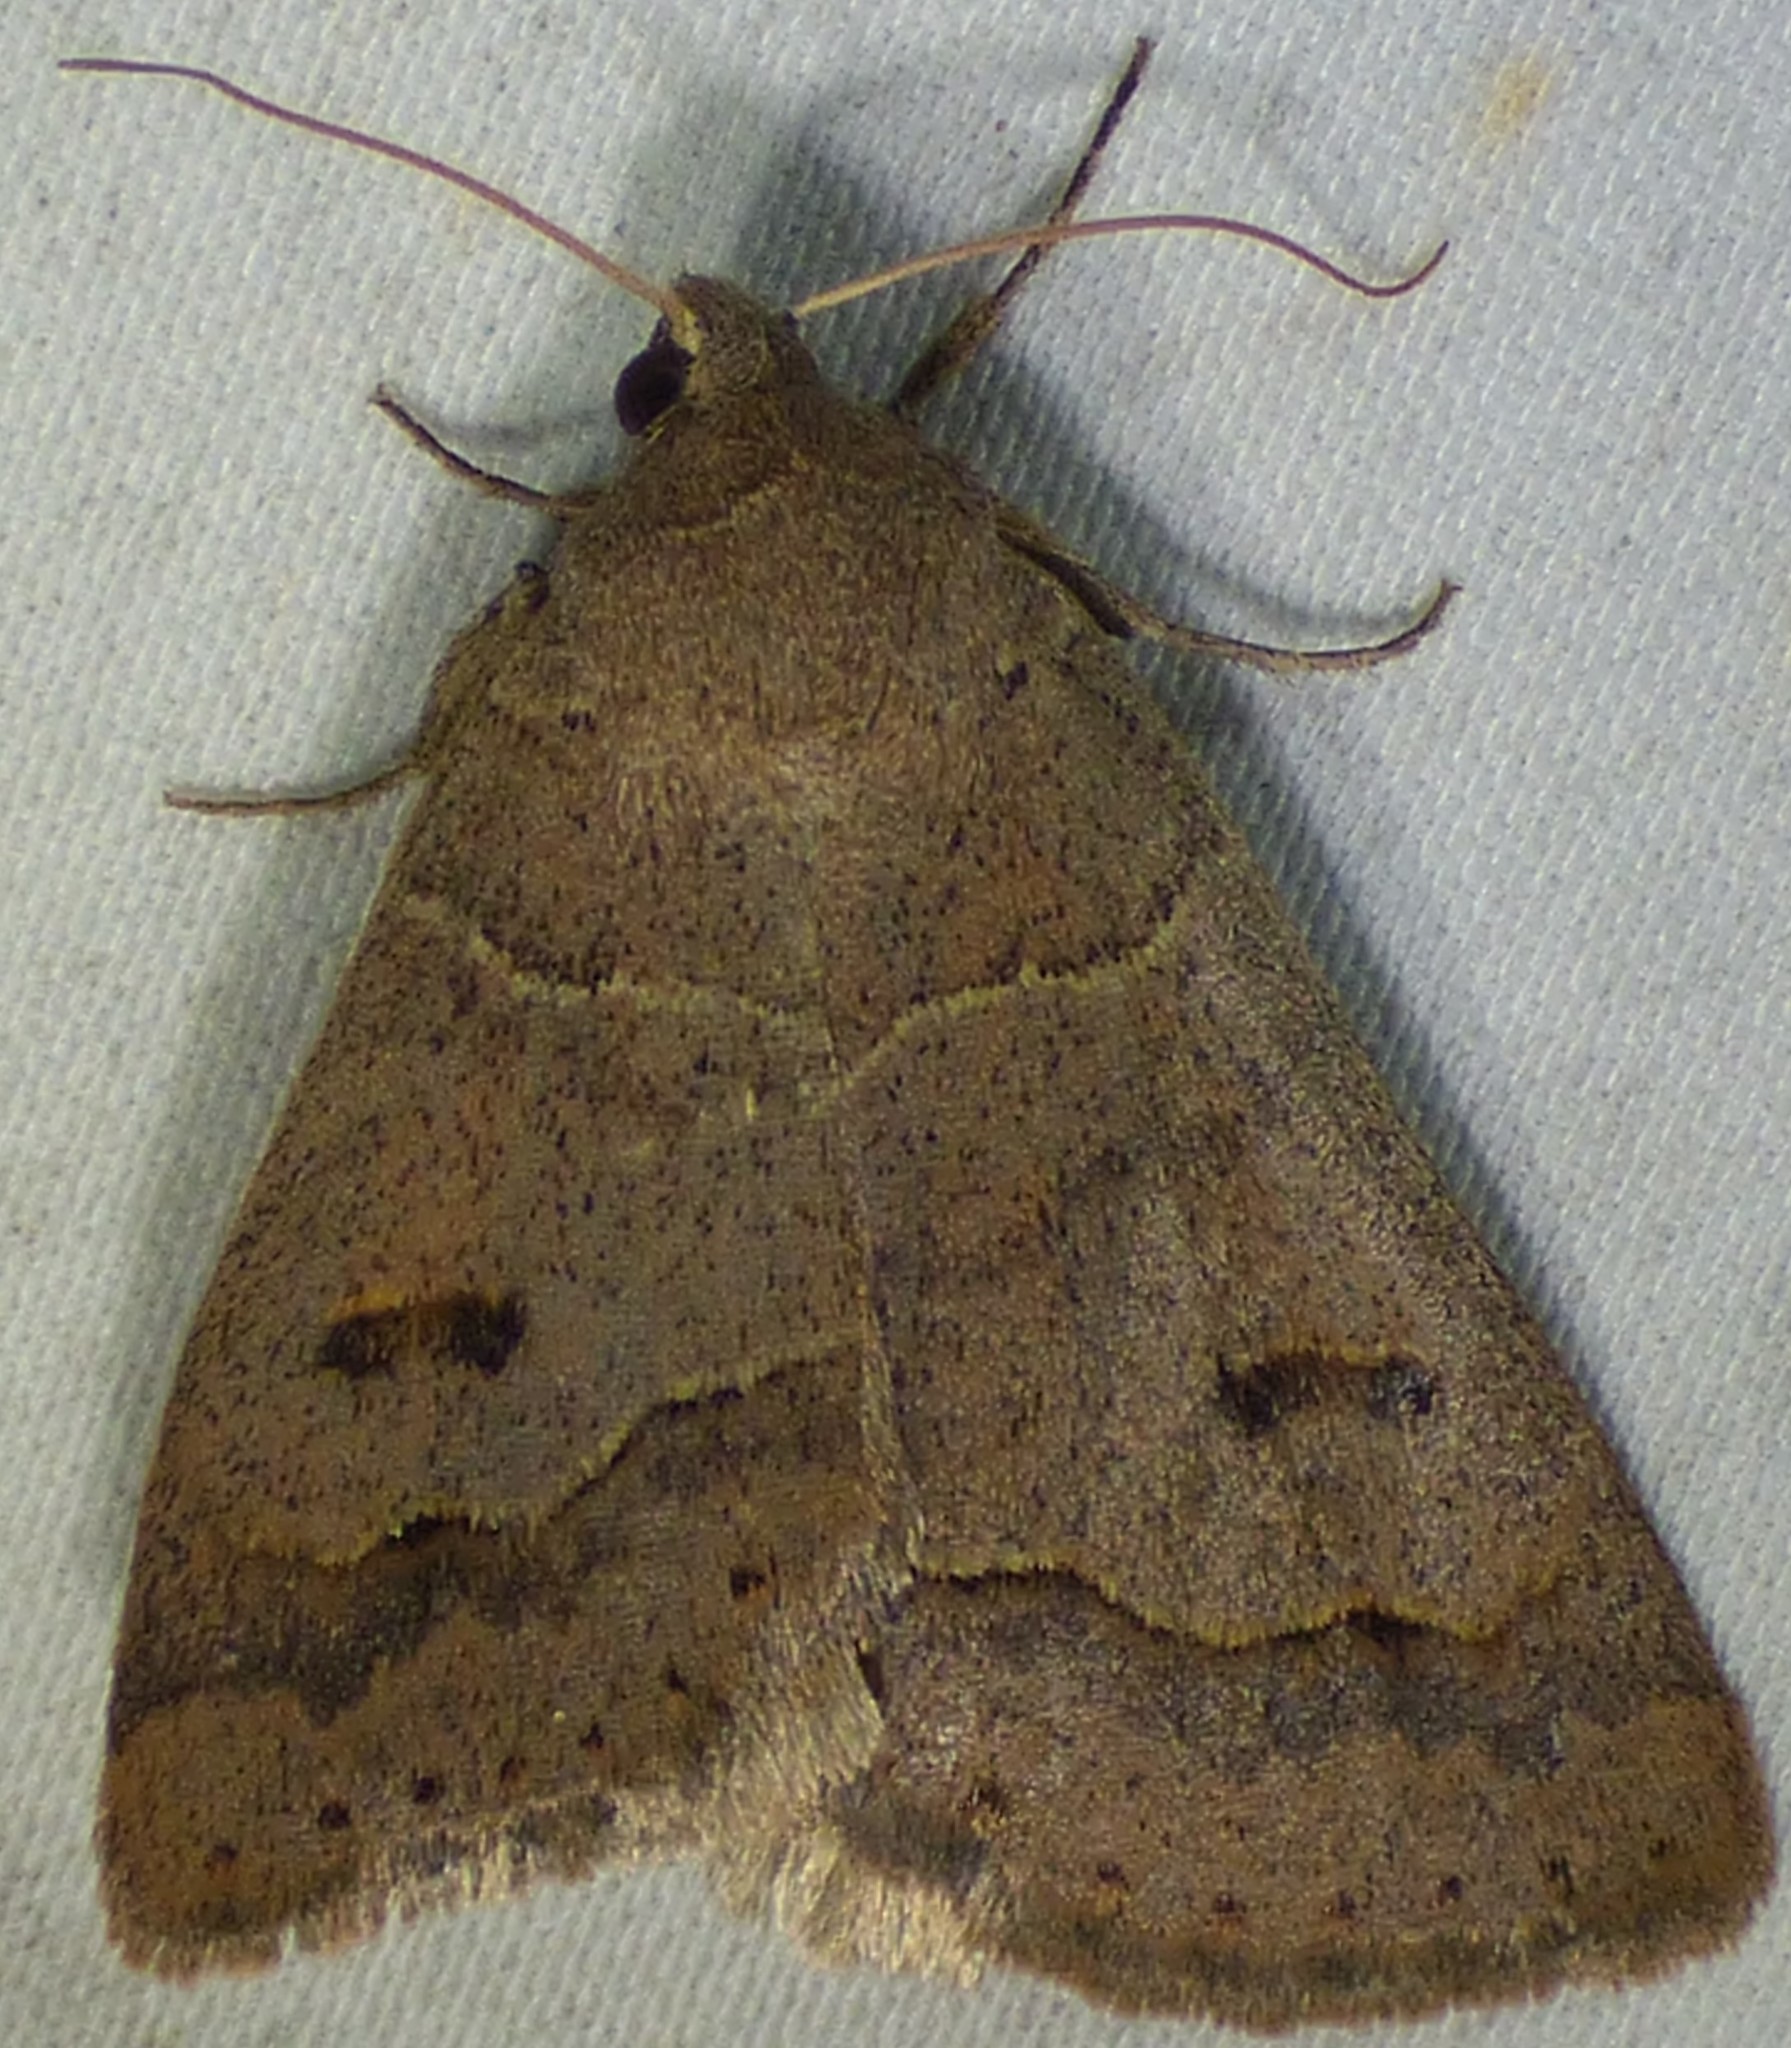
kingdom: Animalia
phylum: Arthropoda
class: Insecta
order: Lepidoptera
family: Erebidae
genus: Phoberia
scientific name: Phoberia atomaris
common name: Common oak moth
